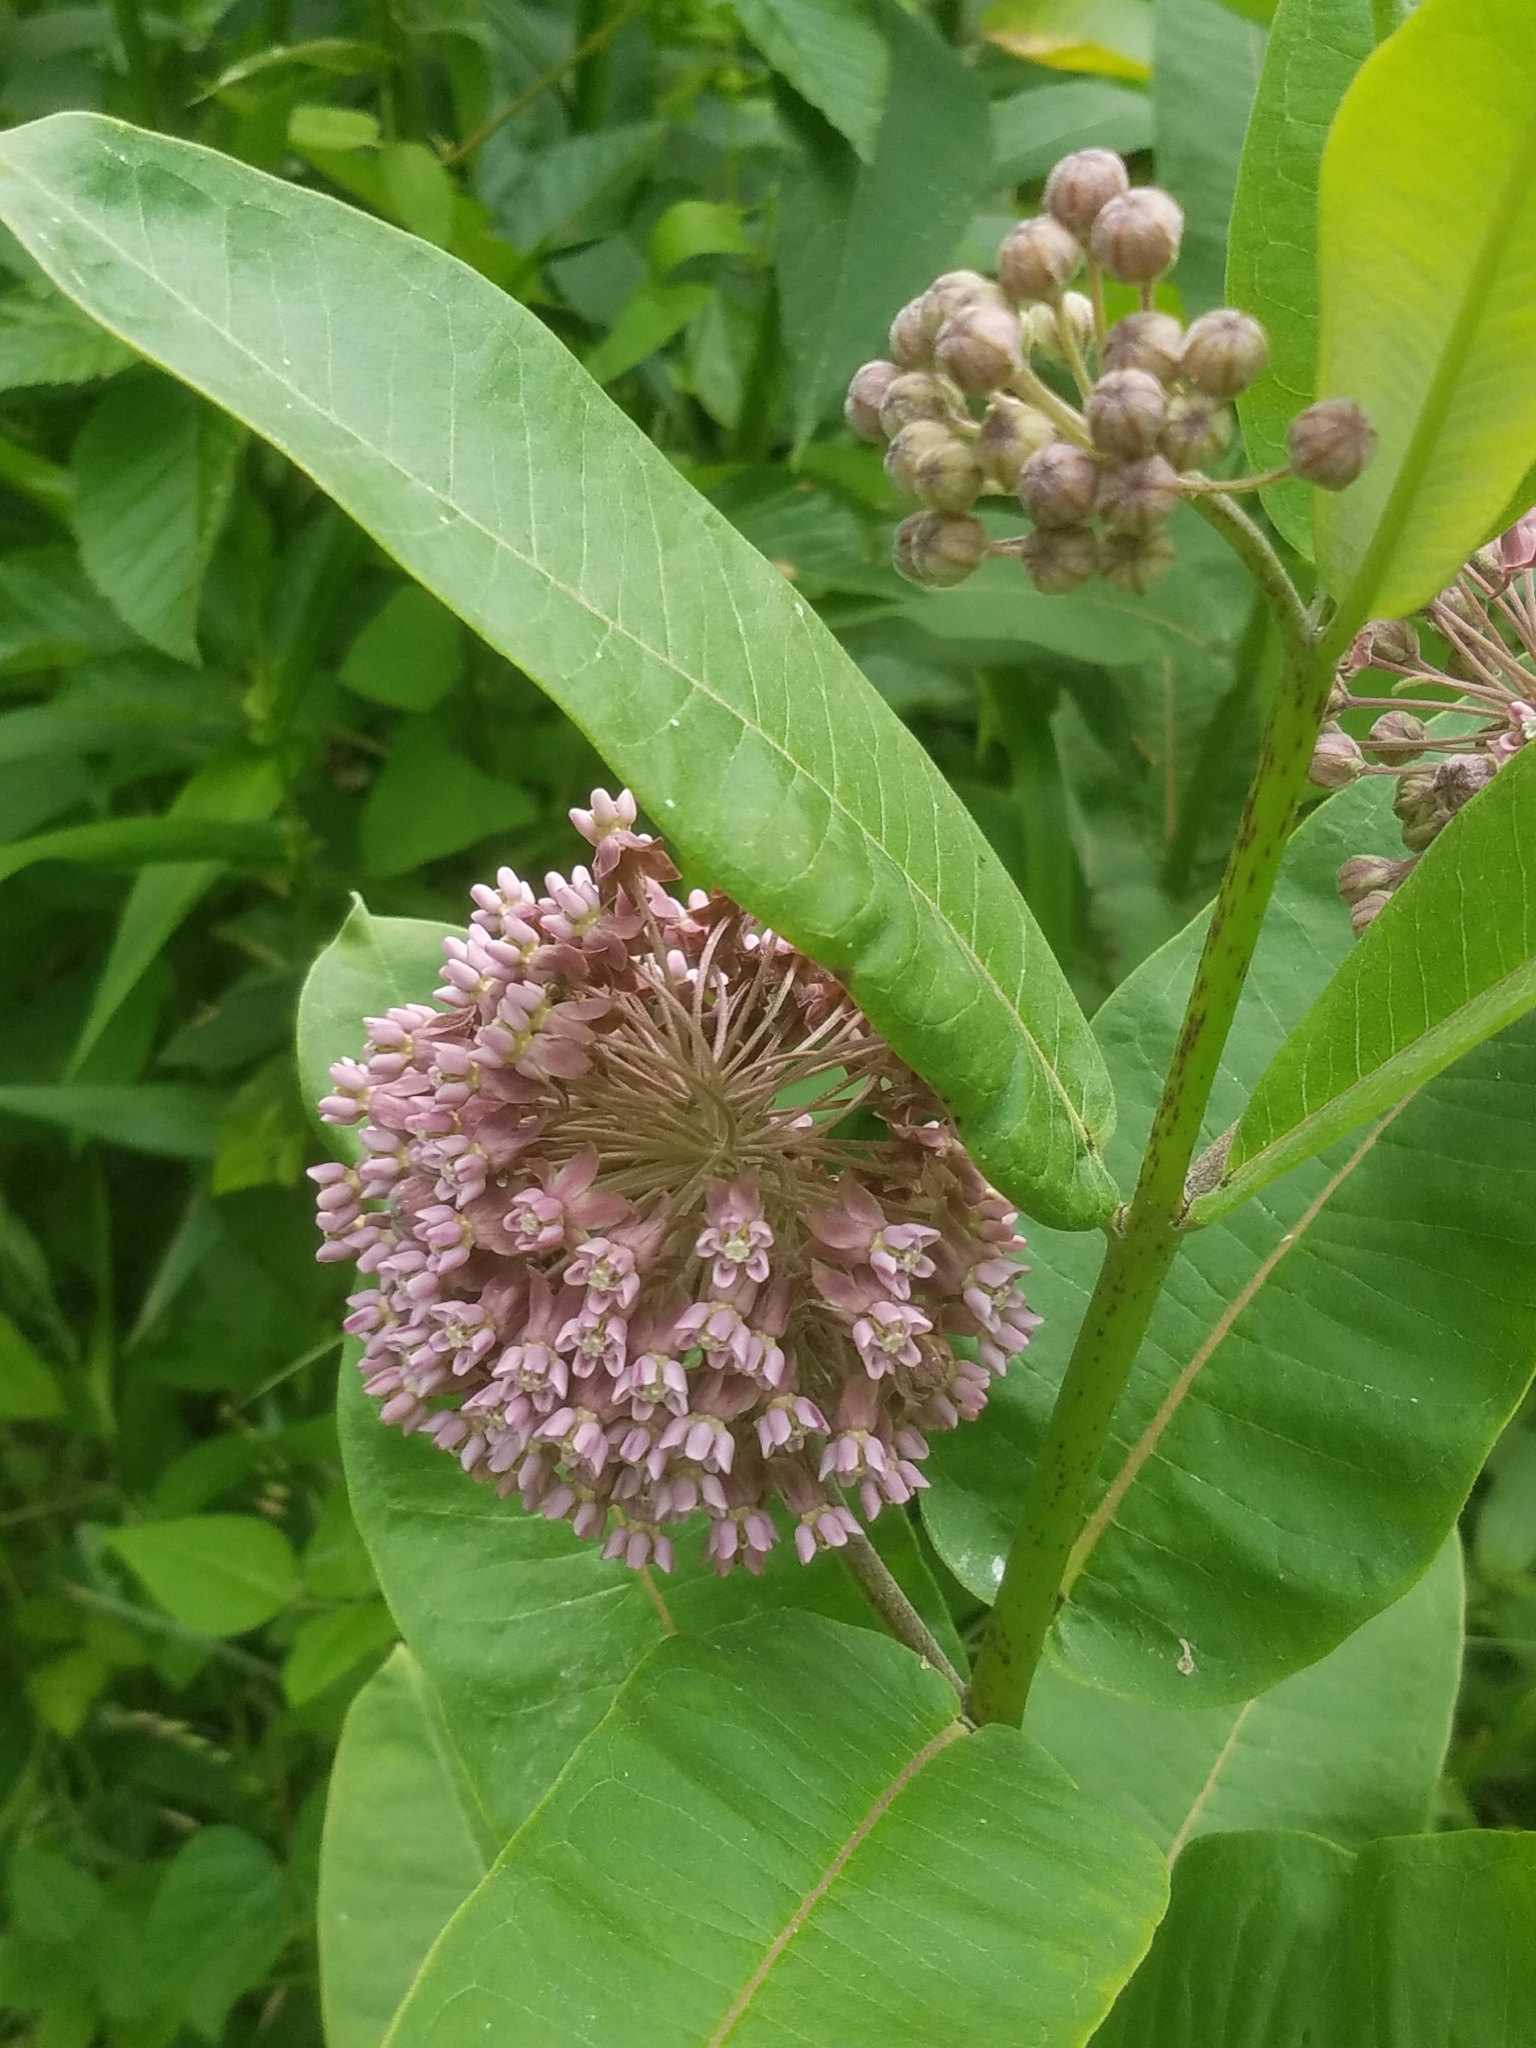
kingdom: Plantae
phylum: Tracheophyta
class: Magnoliopsida
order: Gentianales
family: Apocynaceae
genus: Asclepias
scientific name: Asclepias syriaca
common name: Common milkweed
